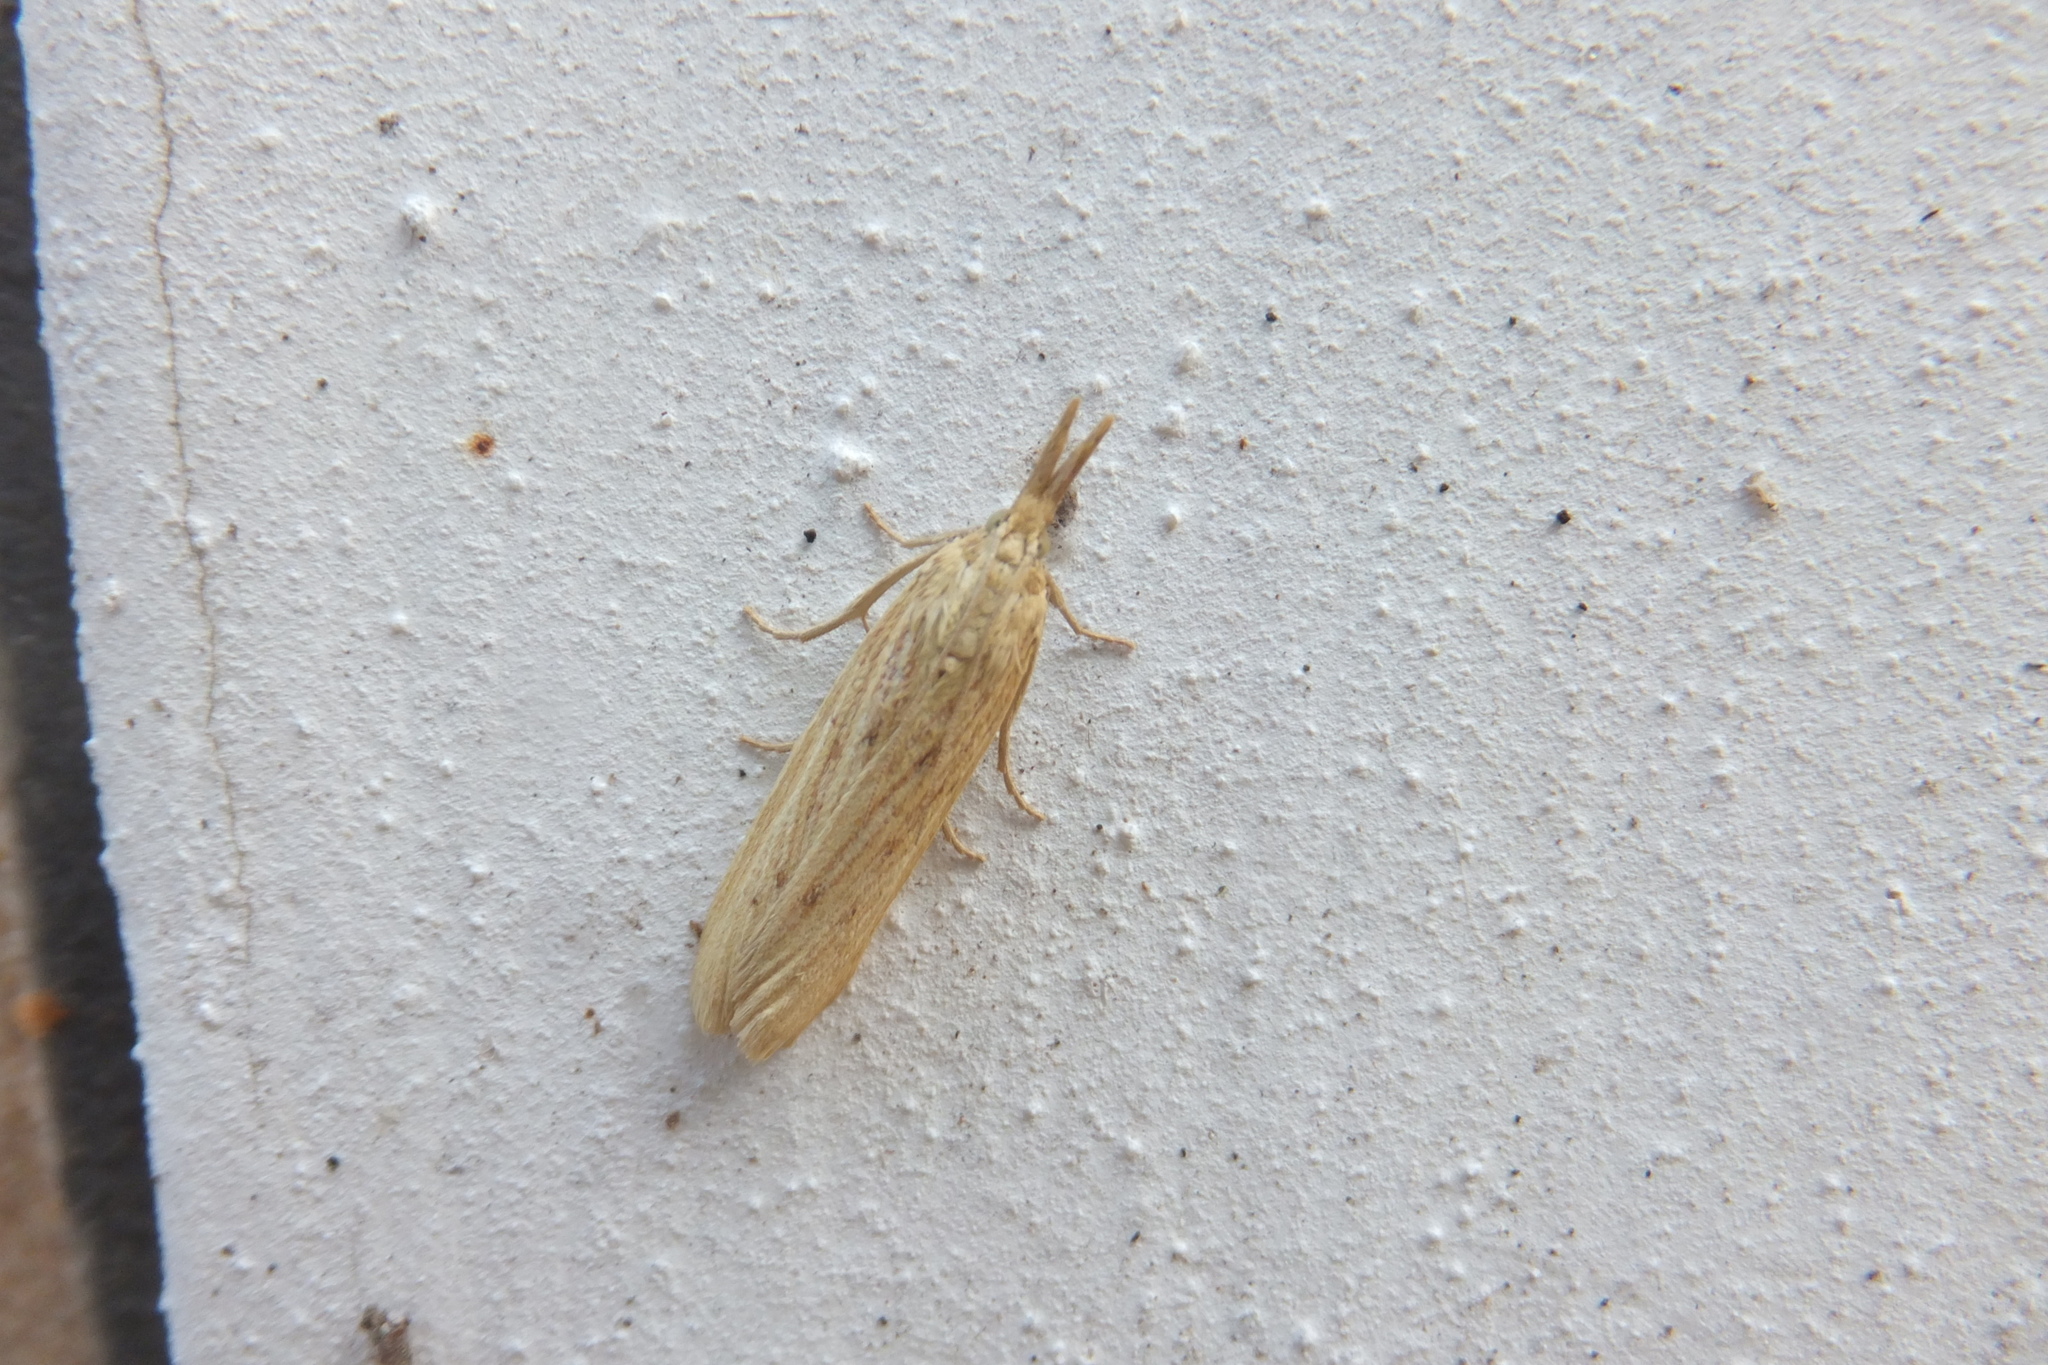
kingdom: Animalia
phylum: Arthropoda
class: Insecta
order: Lepidoptera
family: Pyralidae
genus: Ematheudes
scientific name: Ematheudes punctellus
